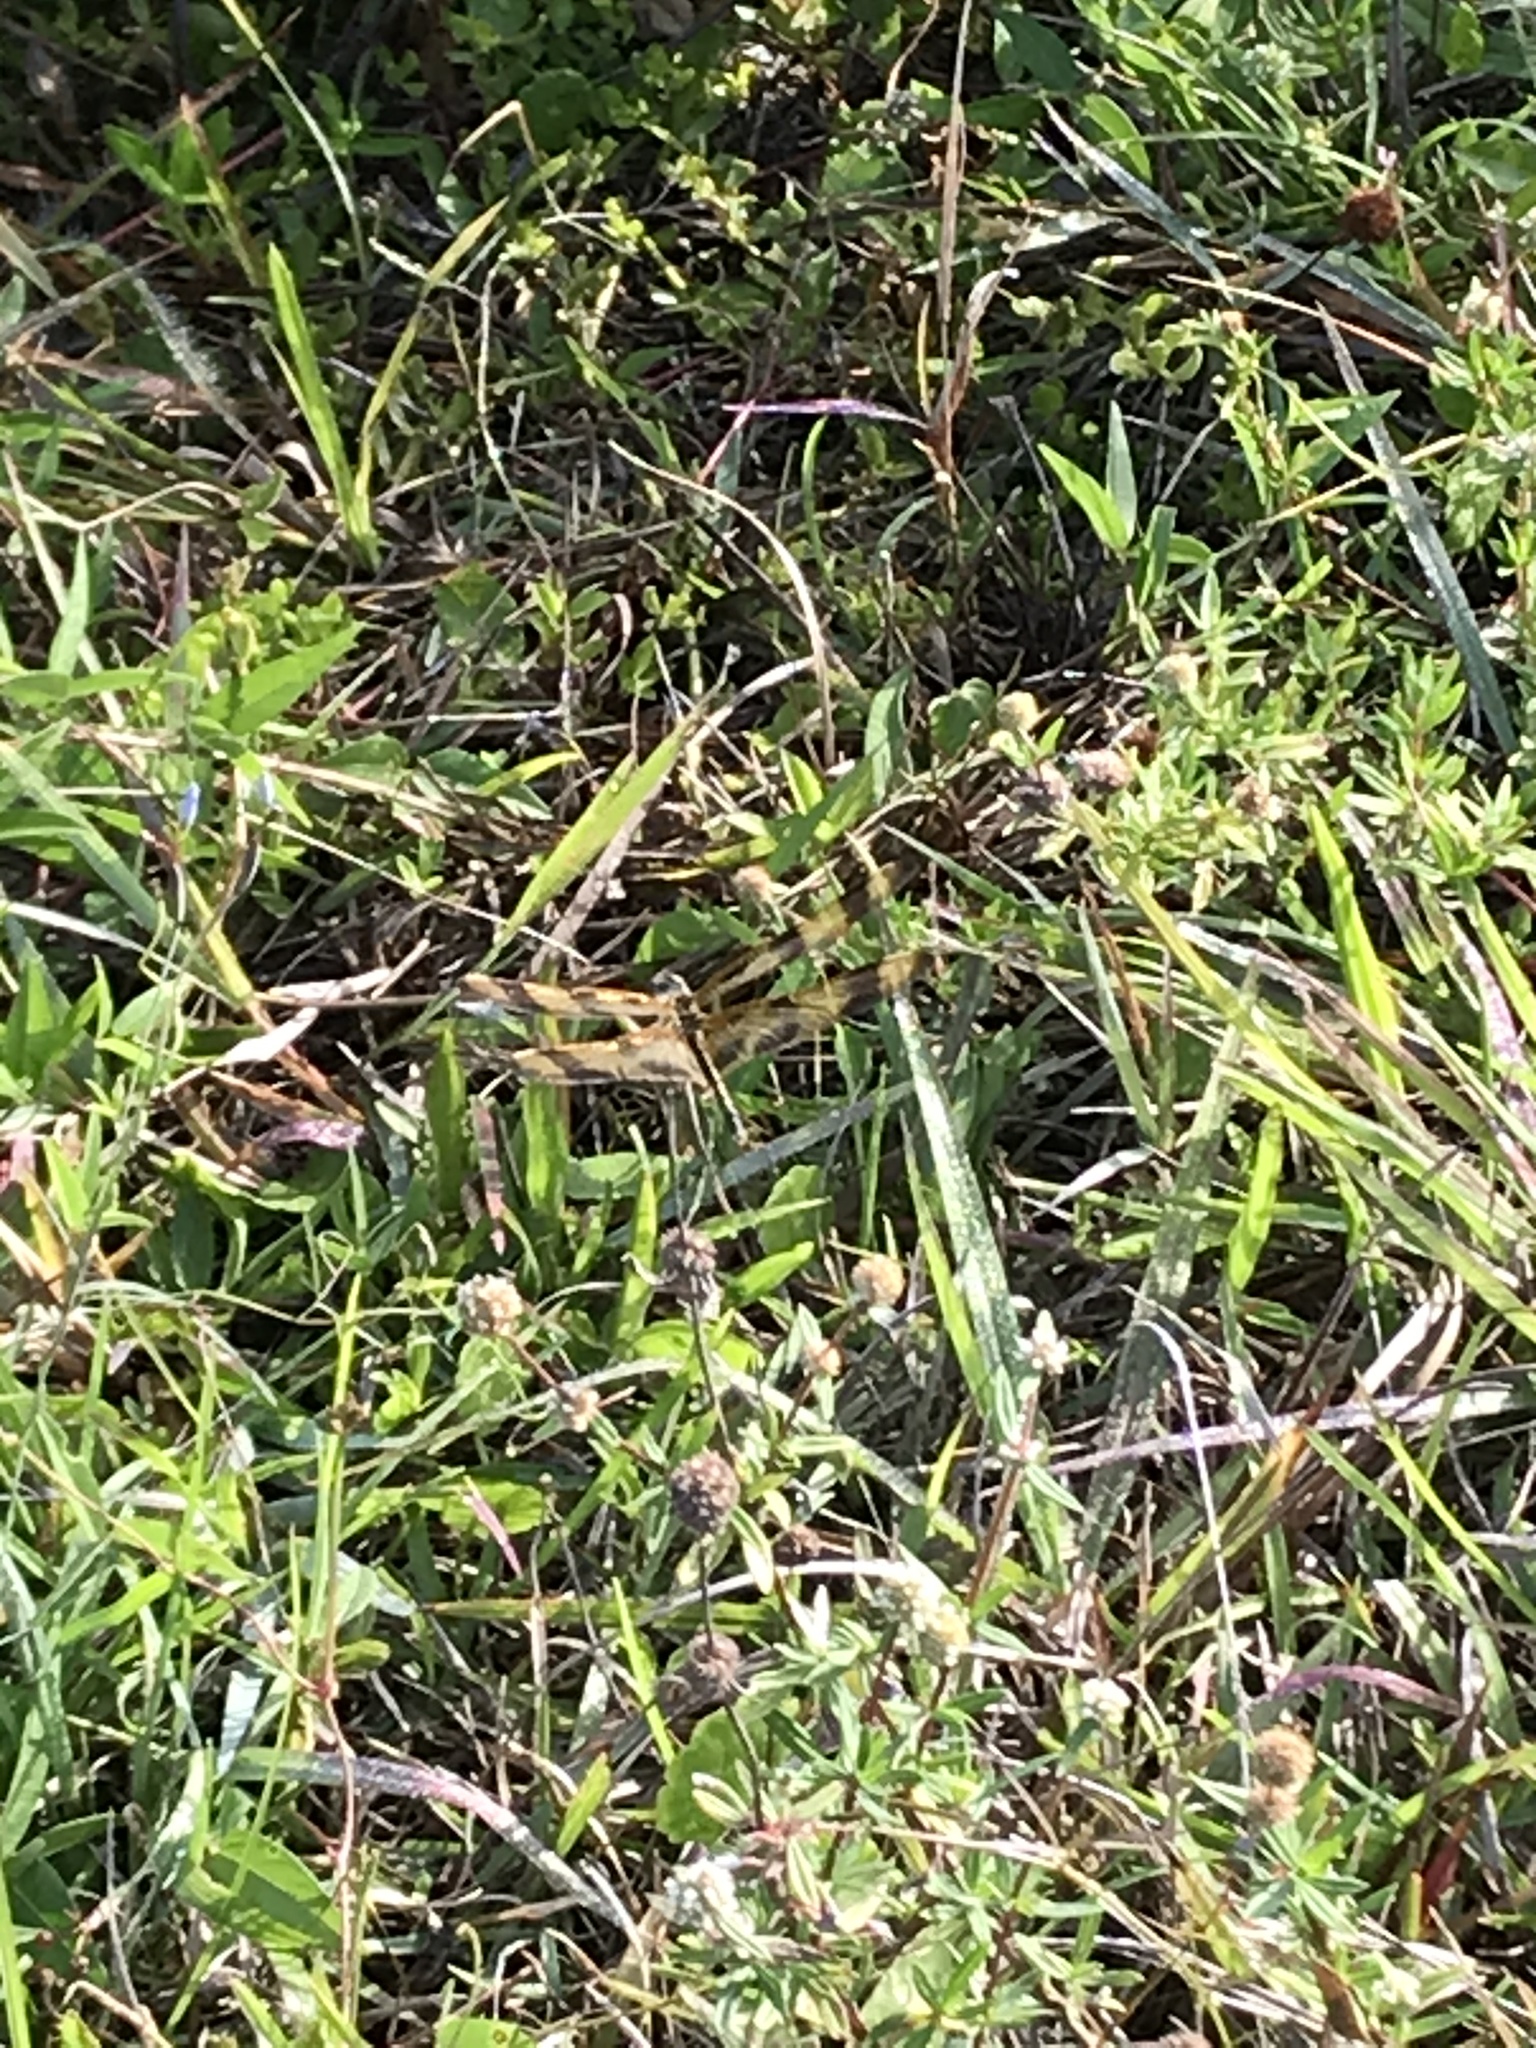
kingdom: Animalia
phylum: Arthropoda
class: Insecta
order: Odonata
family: Libellulidae
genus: Celithemis
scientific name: Celithemis eponina
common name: Halloween pennant
